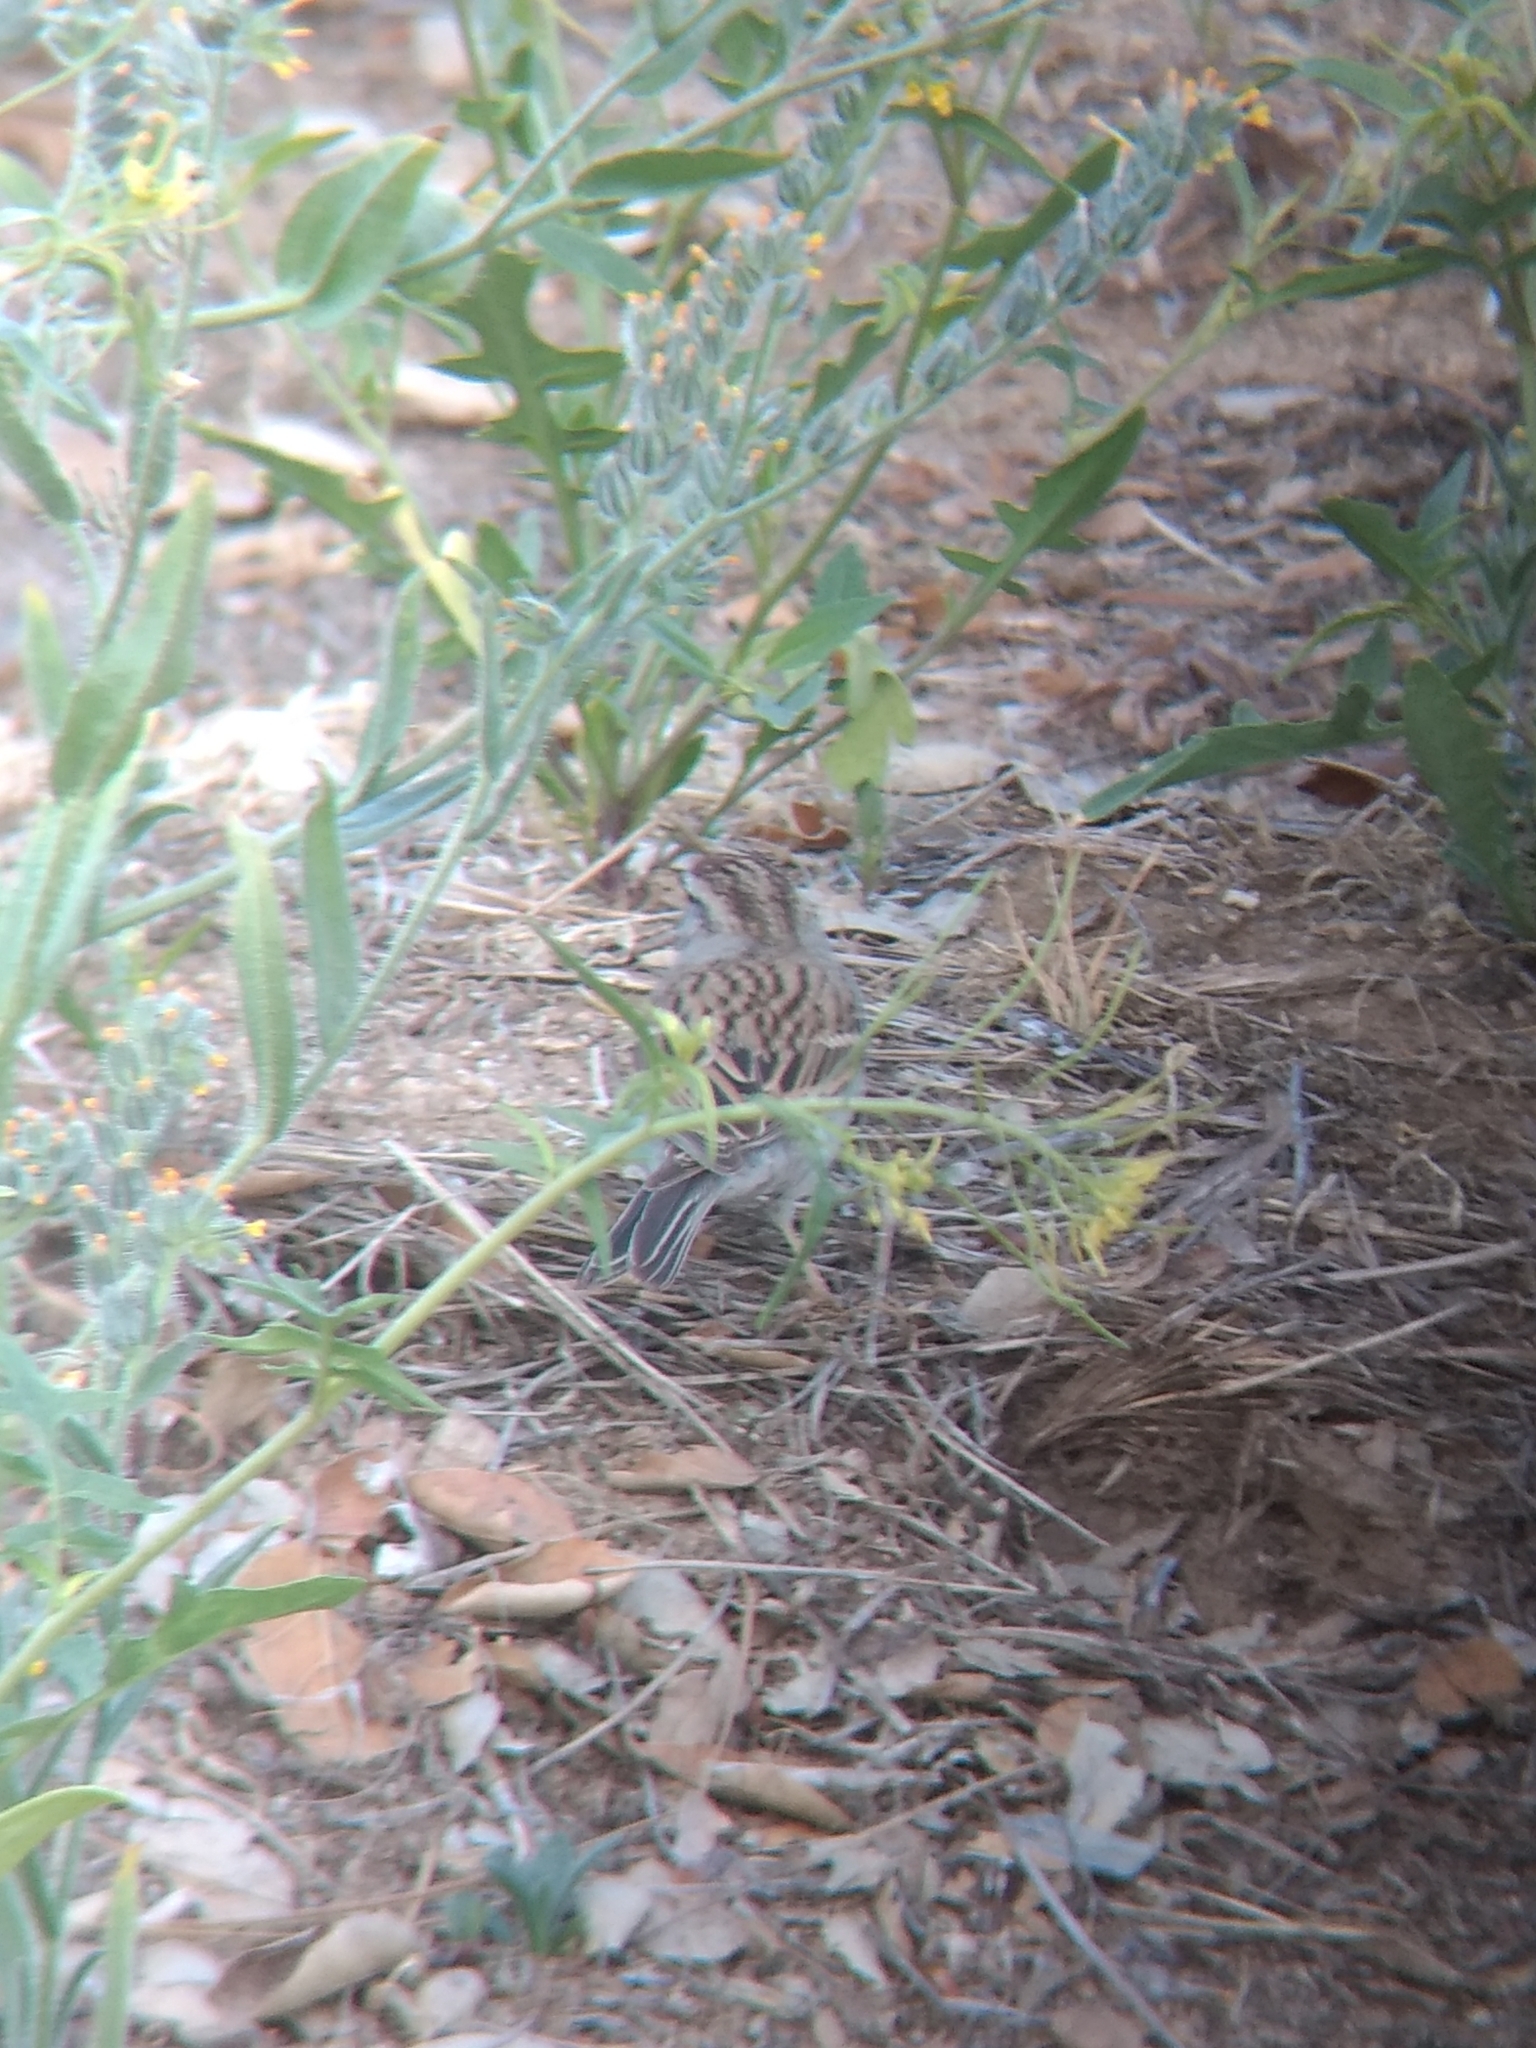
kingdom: Animalia
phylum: Chordata
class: Aves
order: Passeriformes
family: Passerellidae
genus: Spizella
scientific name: Spizella passerina
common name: Chipping sparrow
